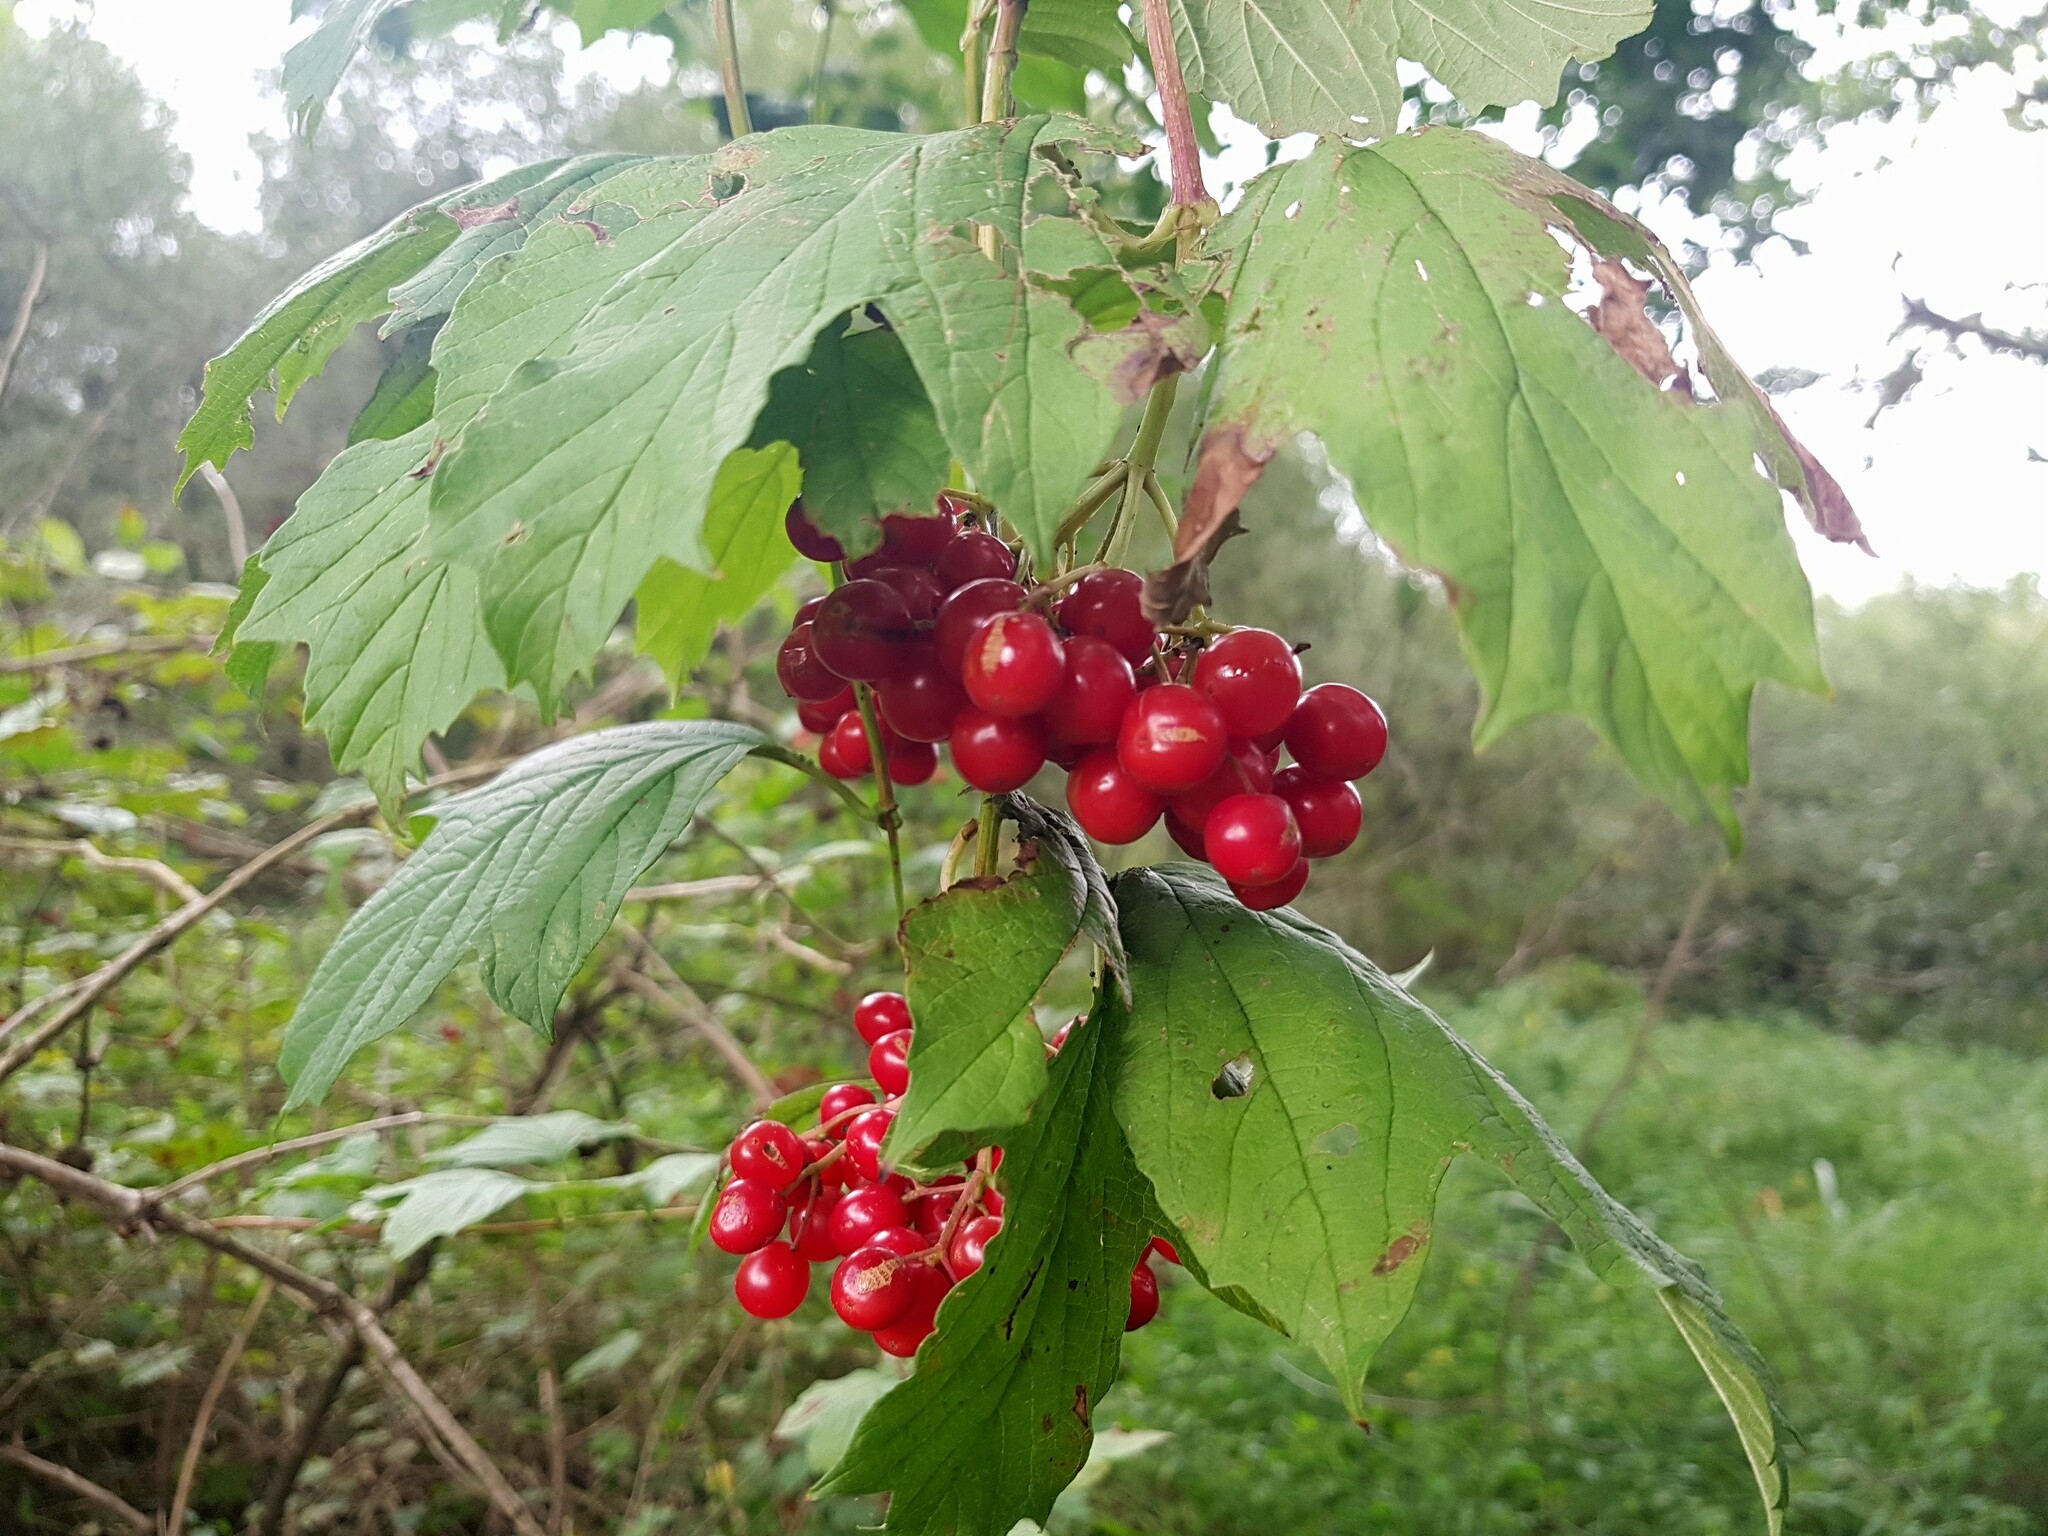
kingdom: Plantae
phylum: Tracheophyta
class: Magnoliopsida
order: Dipsacales
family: Viburnaceae
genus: Viburnum
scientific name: Viburnum opulus
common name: Guelder-rose
